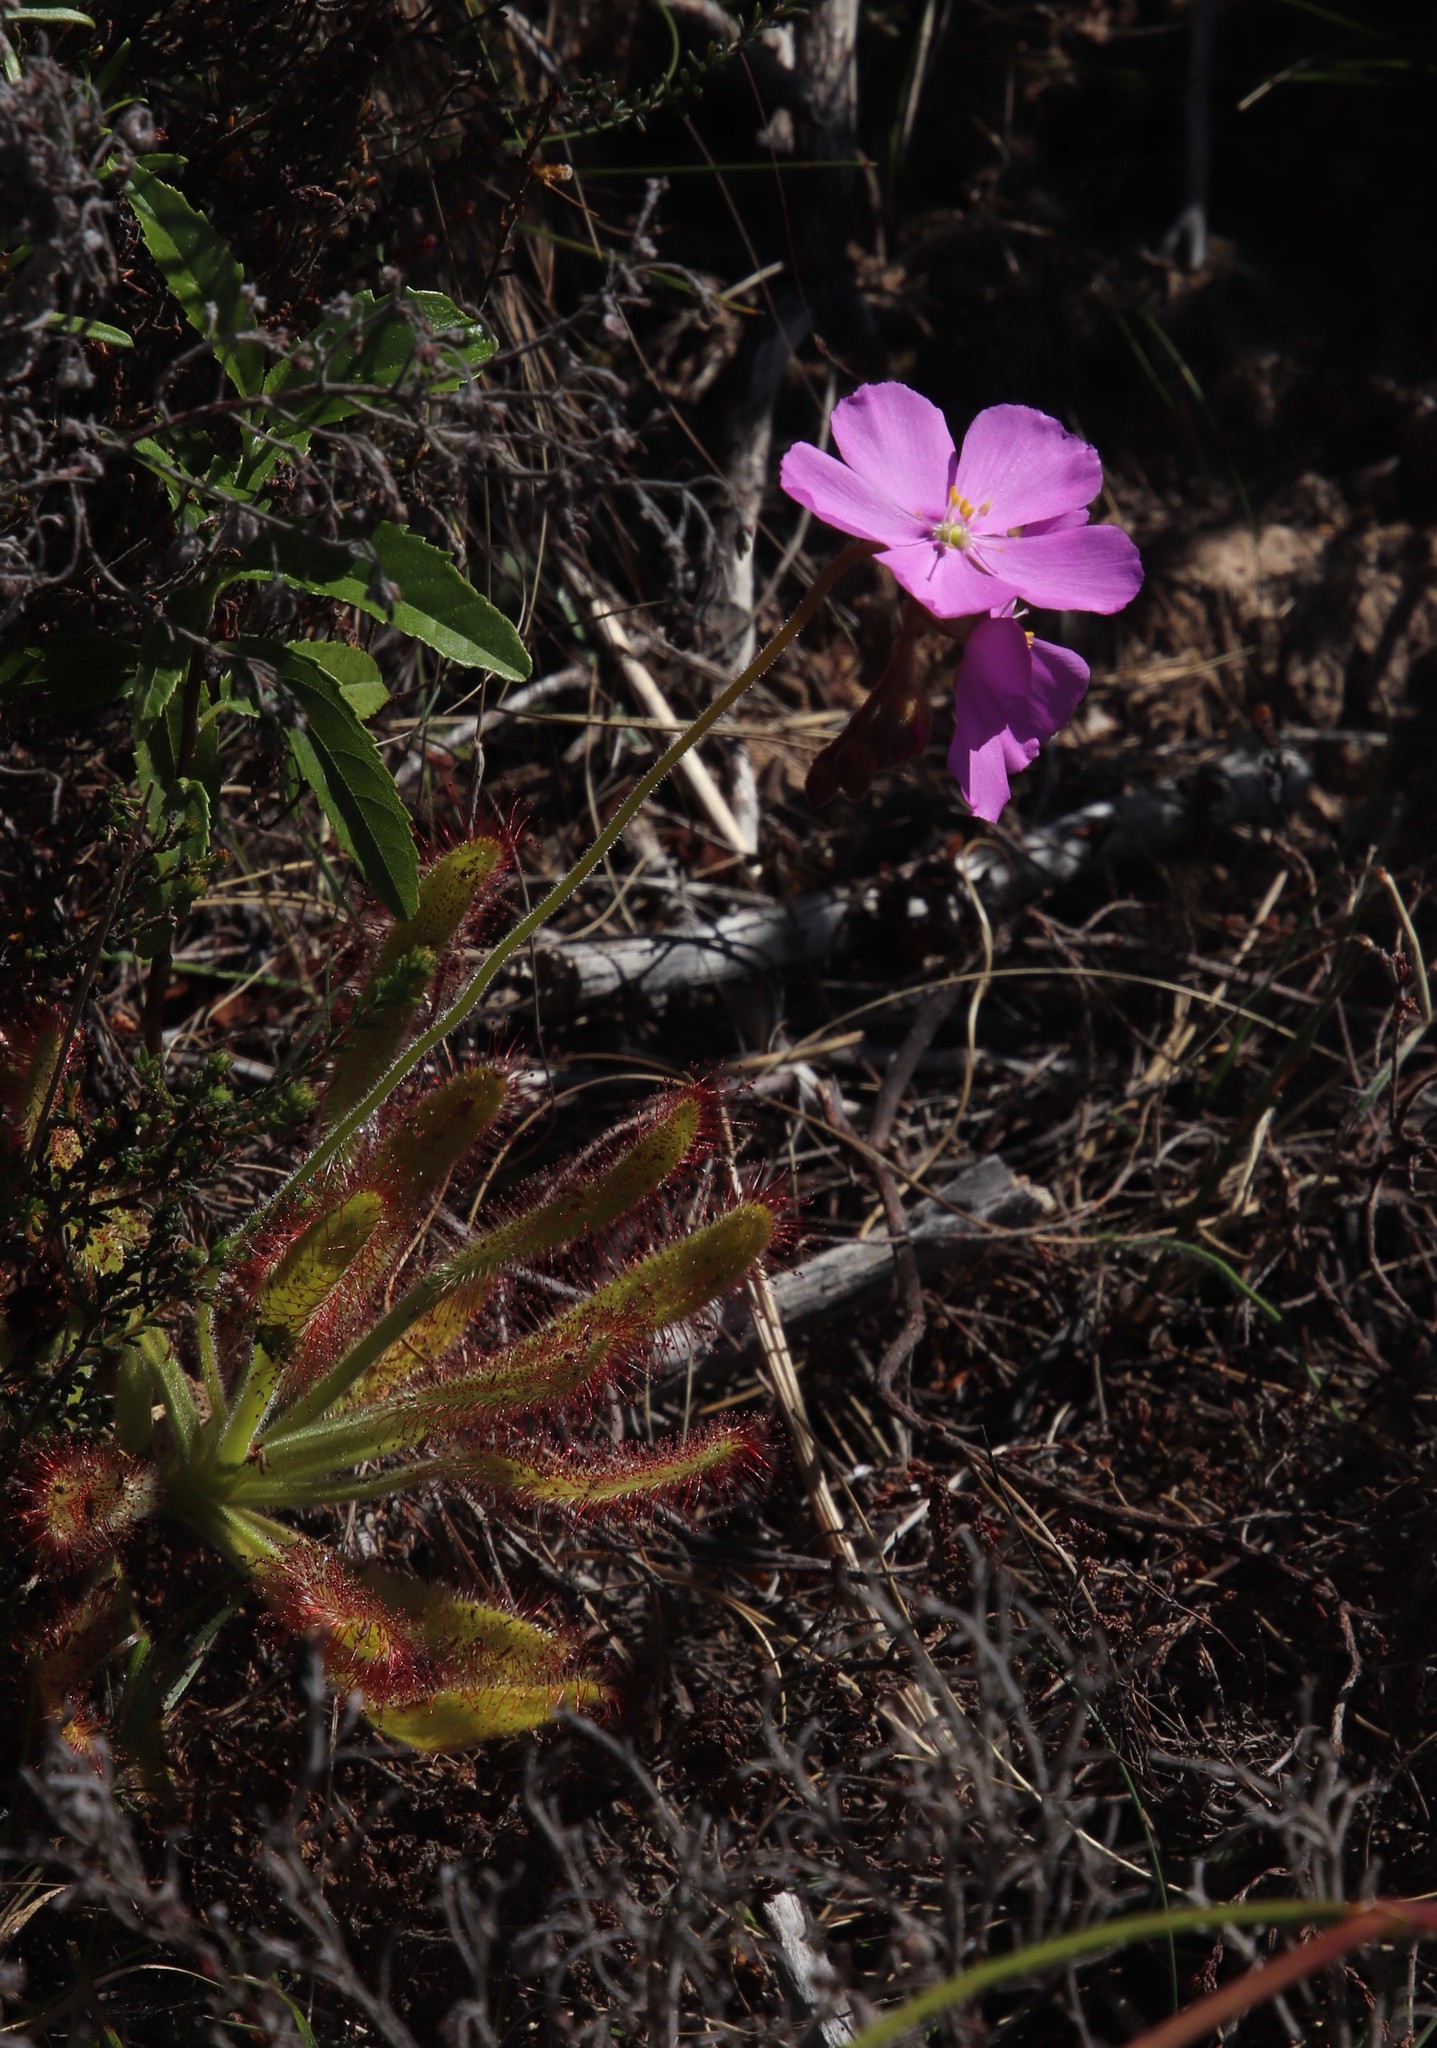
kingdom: Plantae
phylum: Tracheophyta
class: Magnoliopsida
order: Caryophyllales
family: Droseraceae
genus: Drosera
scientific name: Drosera hilaris
